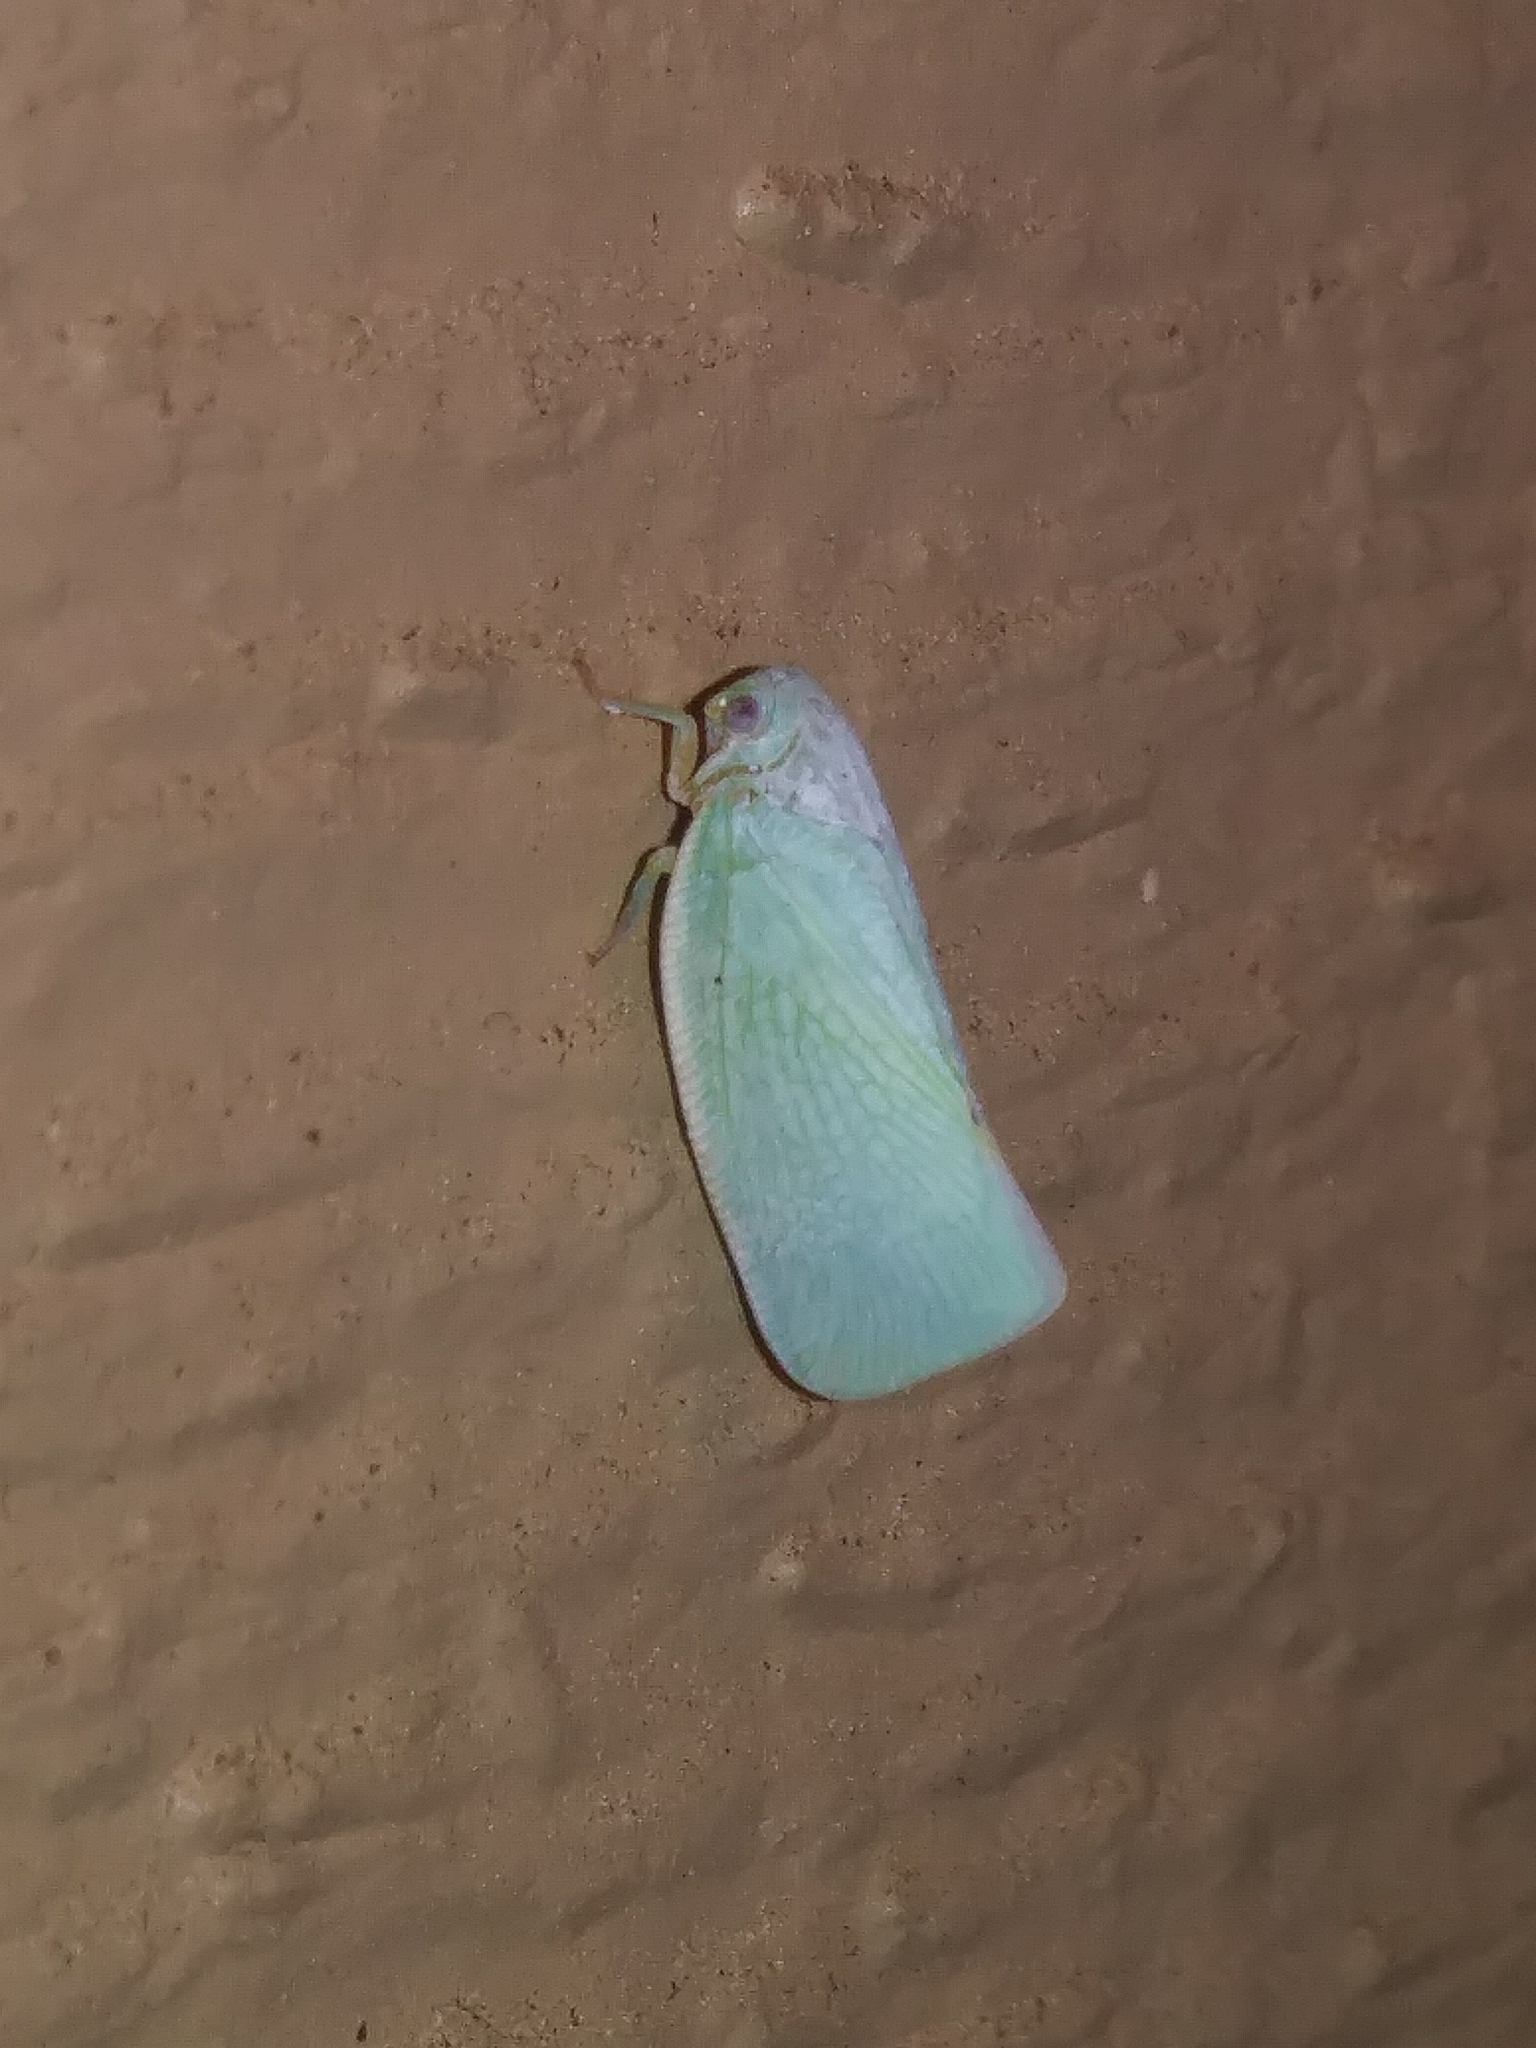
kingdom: Animalia
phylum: Arthropoda
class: Insecta
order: Hemiptera
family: Flatidae
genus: Flatormenis
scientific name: Flatormenis proxima
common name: Northern flatid planthopper
